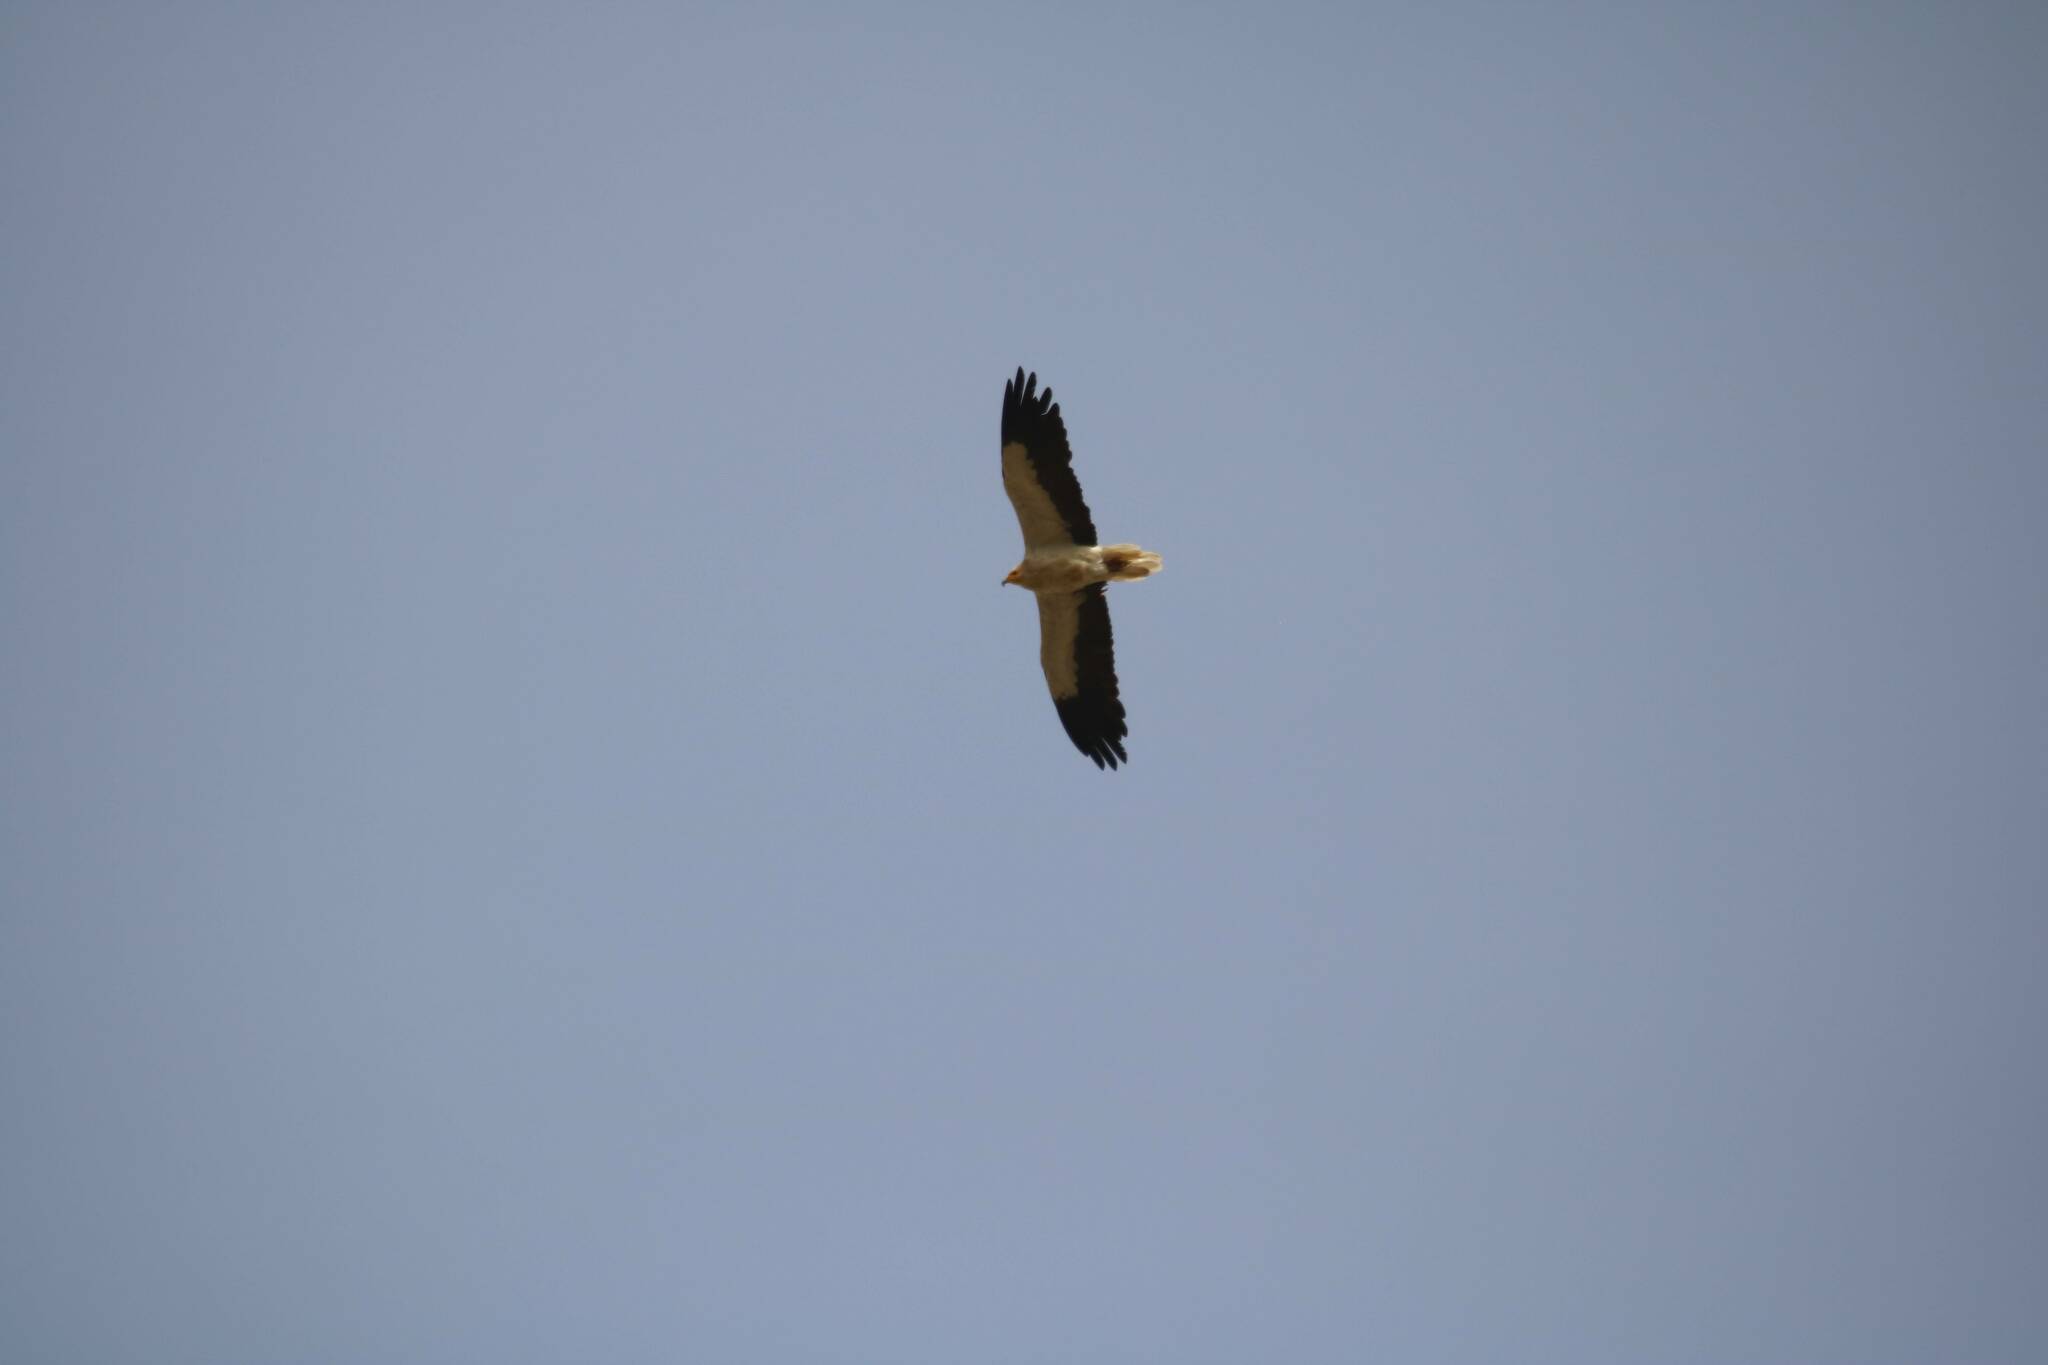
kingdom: Animalia
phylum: Chordata
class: Aves
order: Accipitriformes
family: Accipitridae
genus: Neophron
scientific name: Neophron percnopterus
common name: Egyptian vulture
